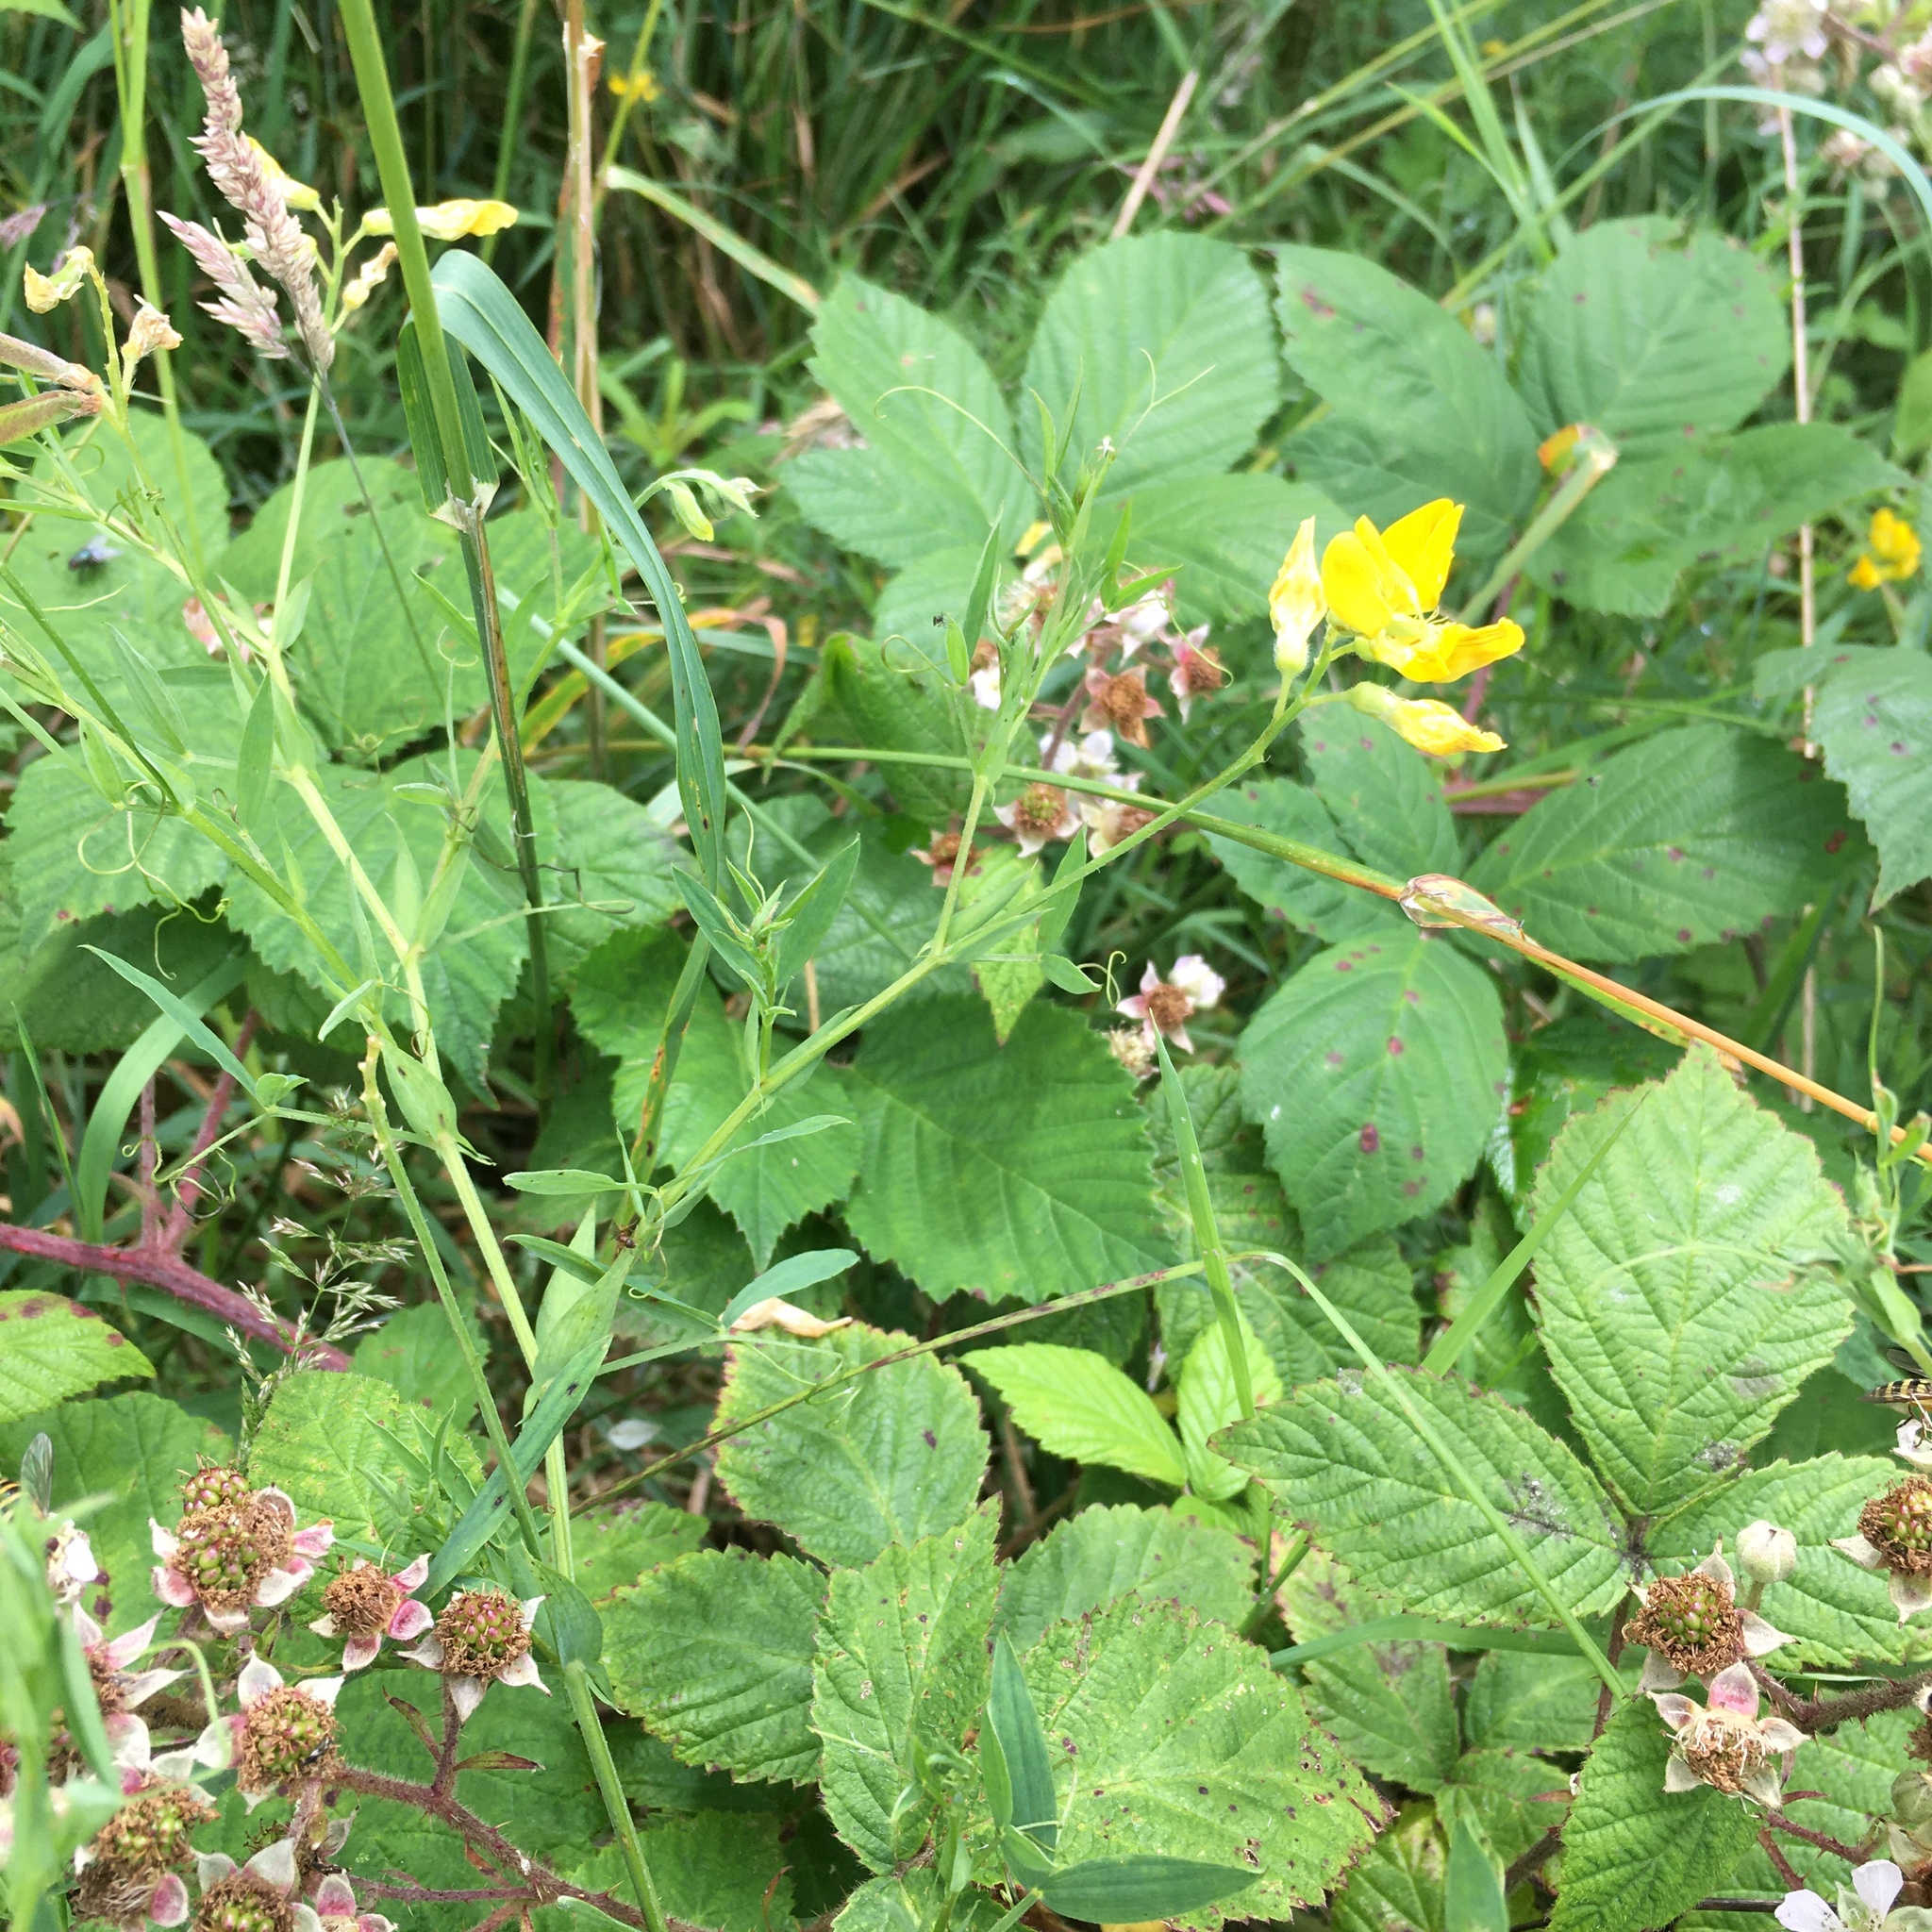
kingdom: Plantae
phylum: Tracheophyta
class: Magnoliopsida
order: Fabales
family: Fabaceae
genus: Lathyrus
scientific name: Lathyrus pratensis
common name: Meadow vetchling
